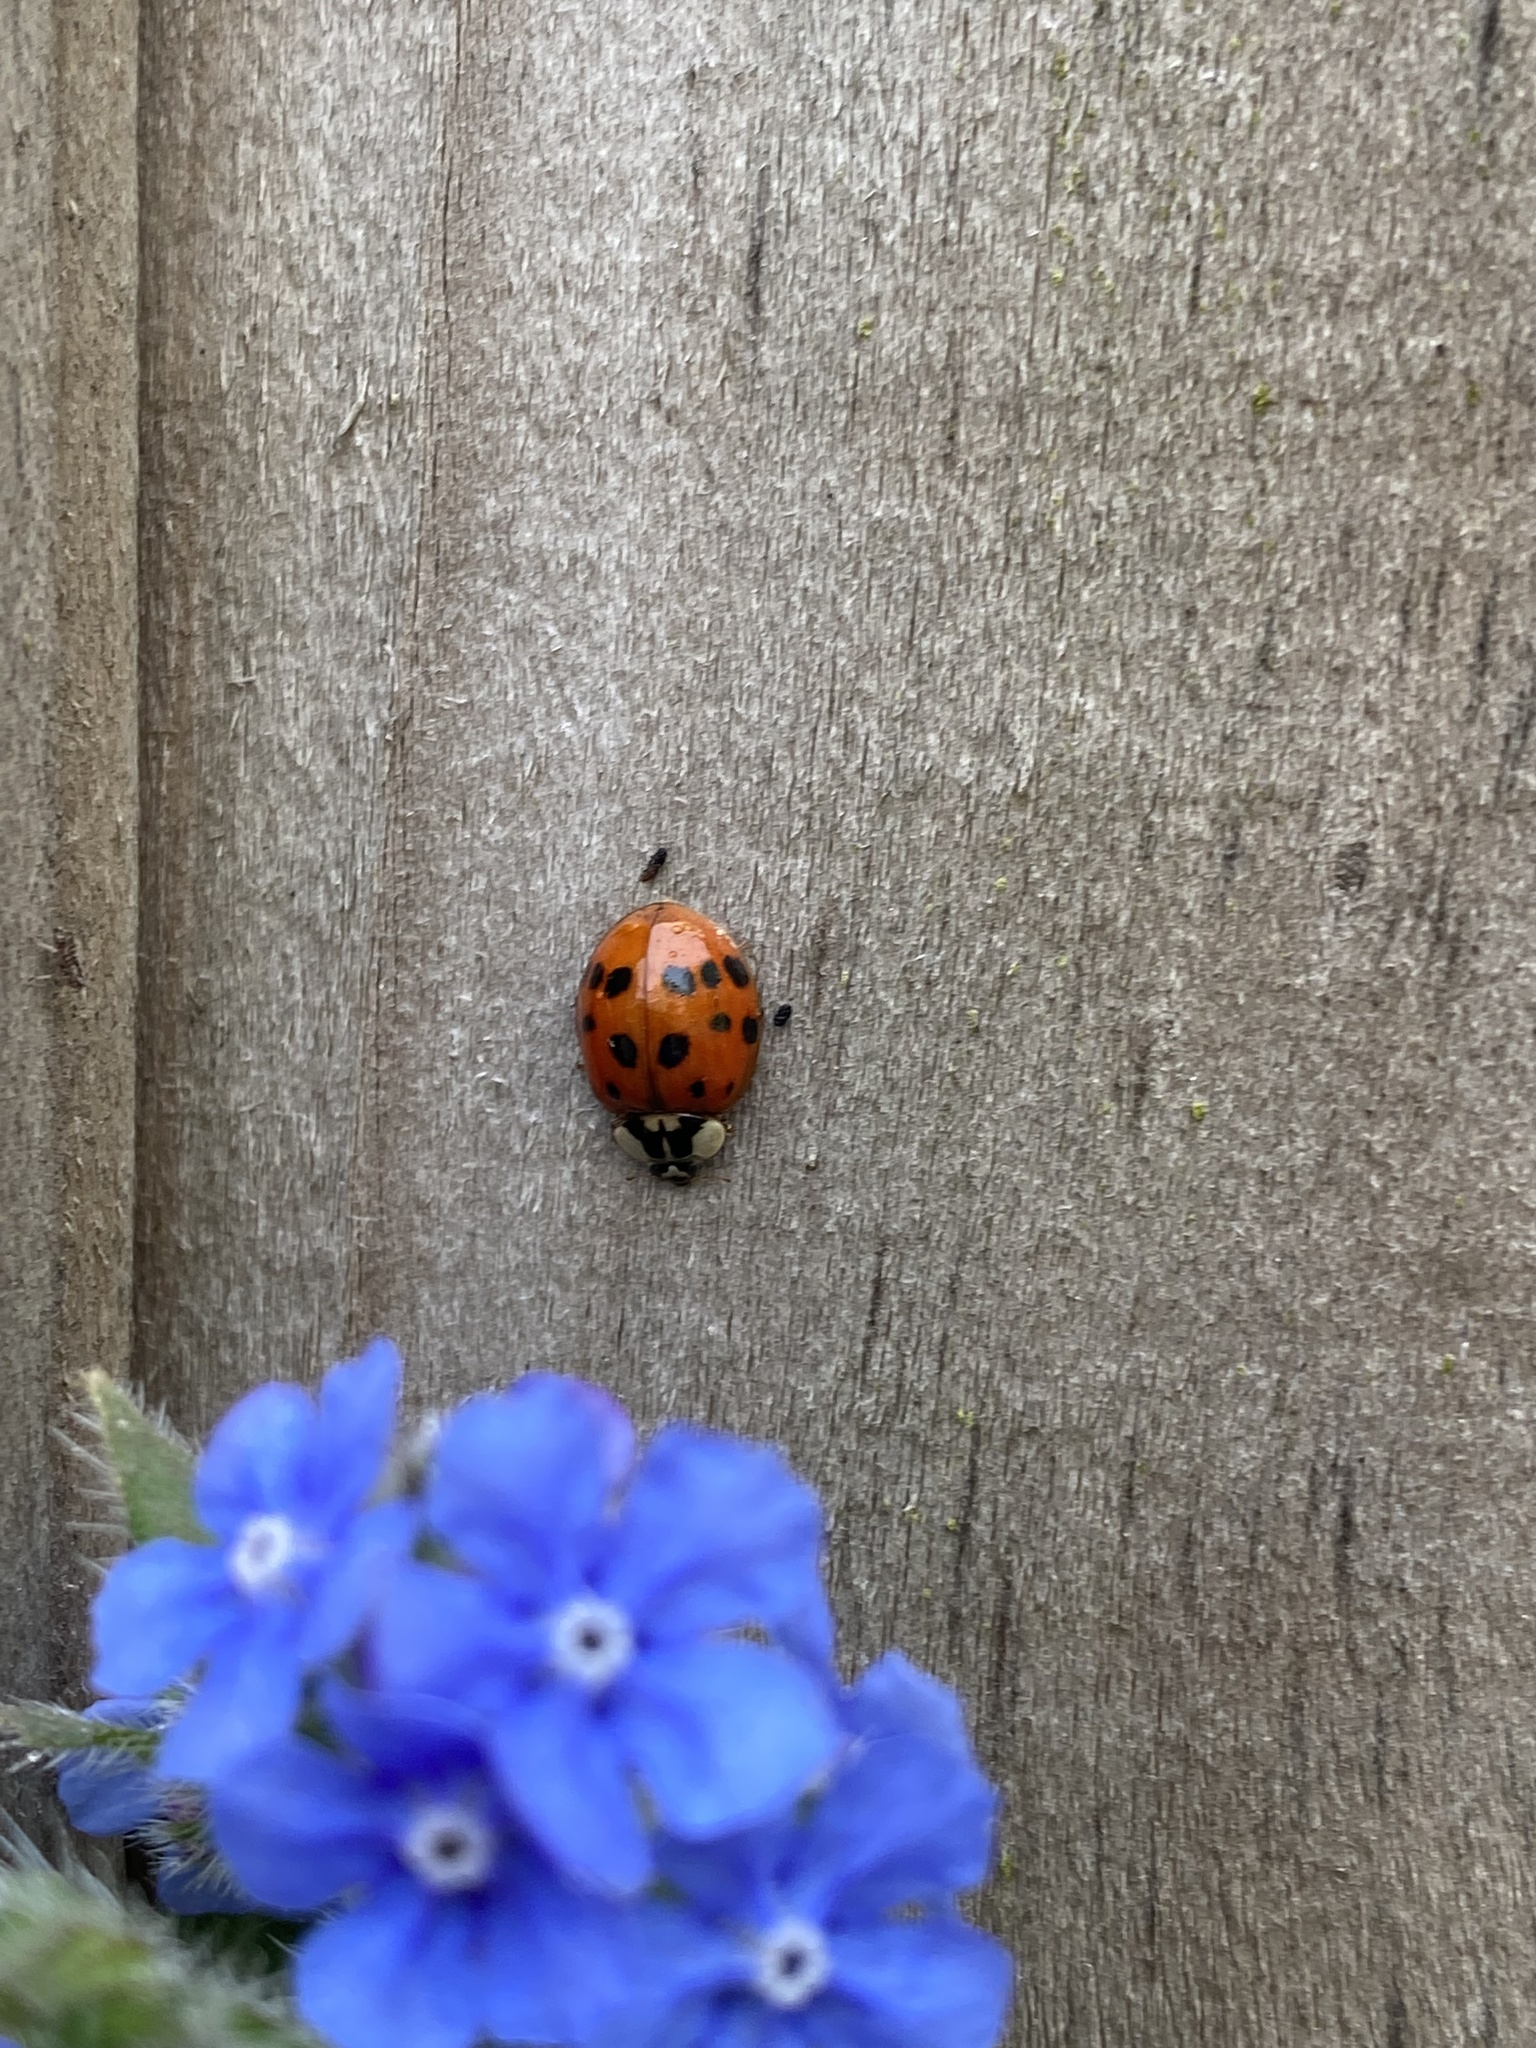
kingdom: Animalia
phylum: Arthropoda
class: Insecta
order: Coleoptera
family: Coccinellidae
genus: Harmonia
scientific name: Harmonia axyridis
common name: Harlequin ladybird
